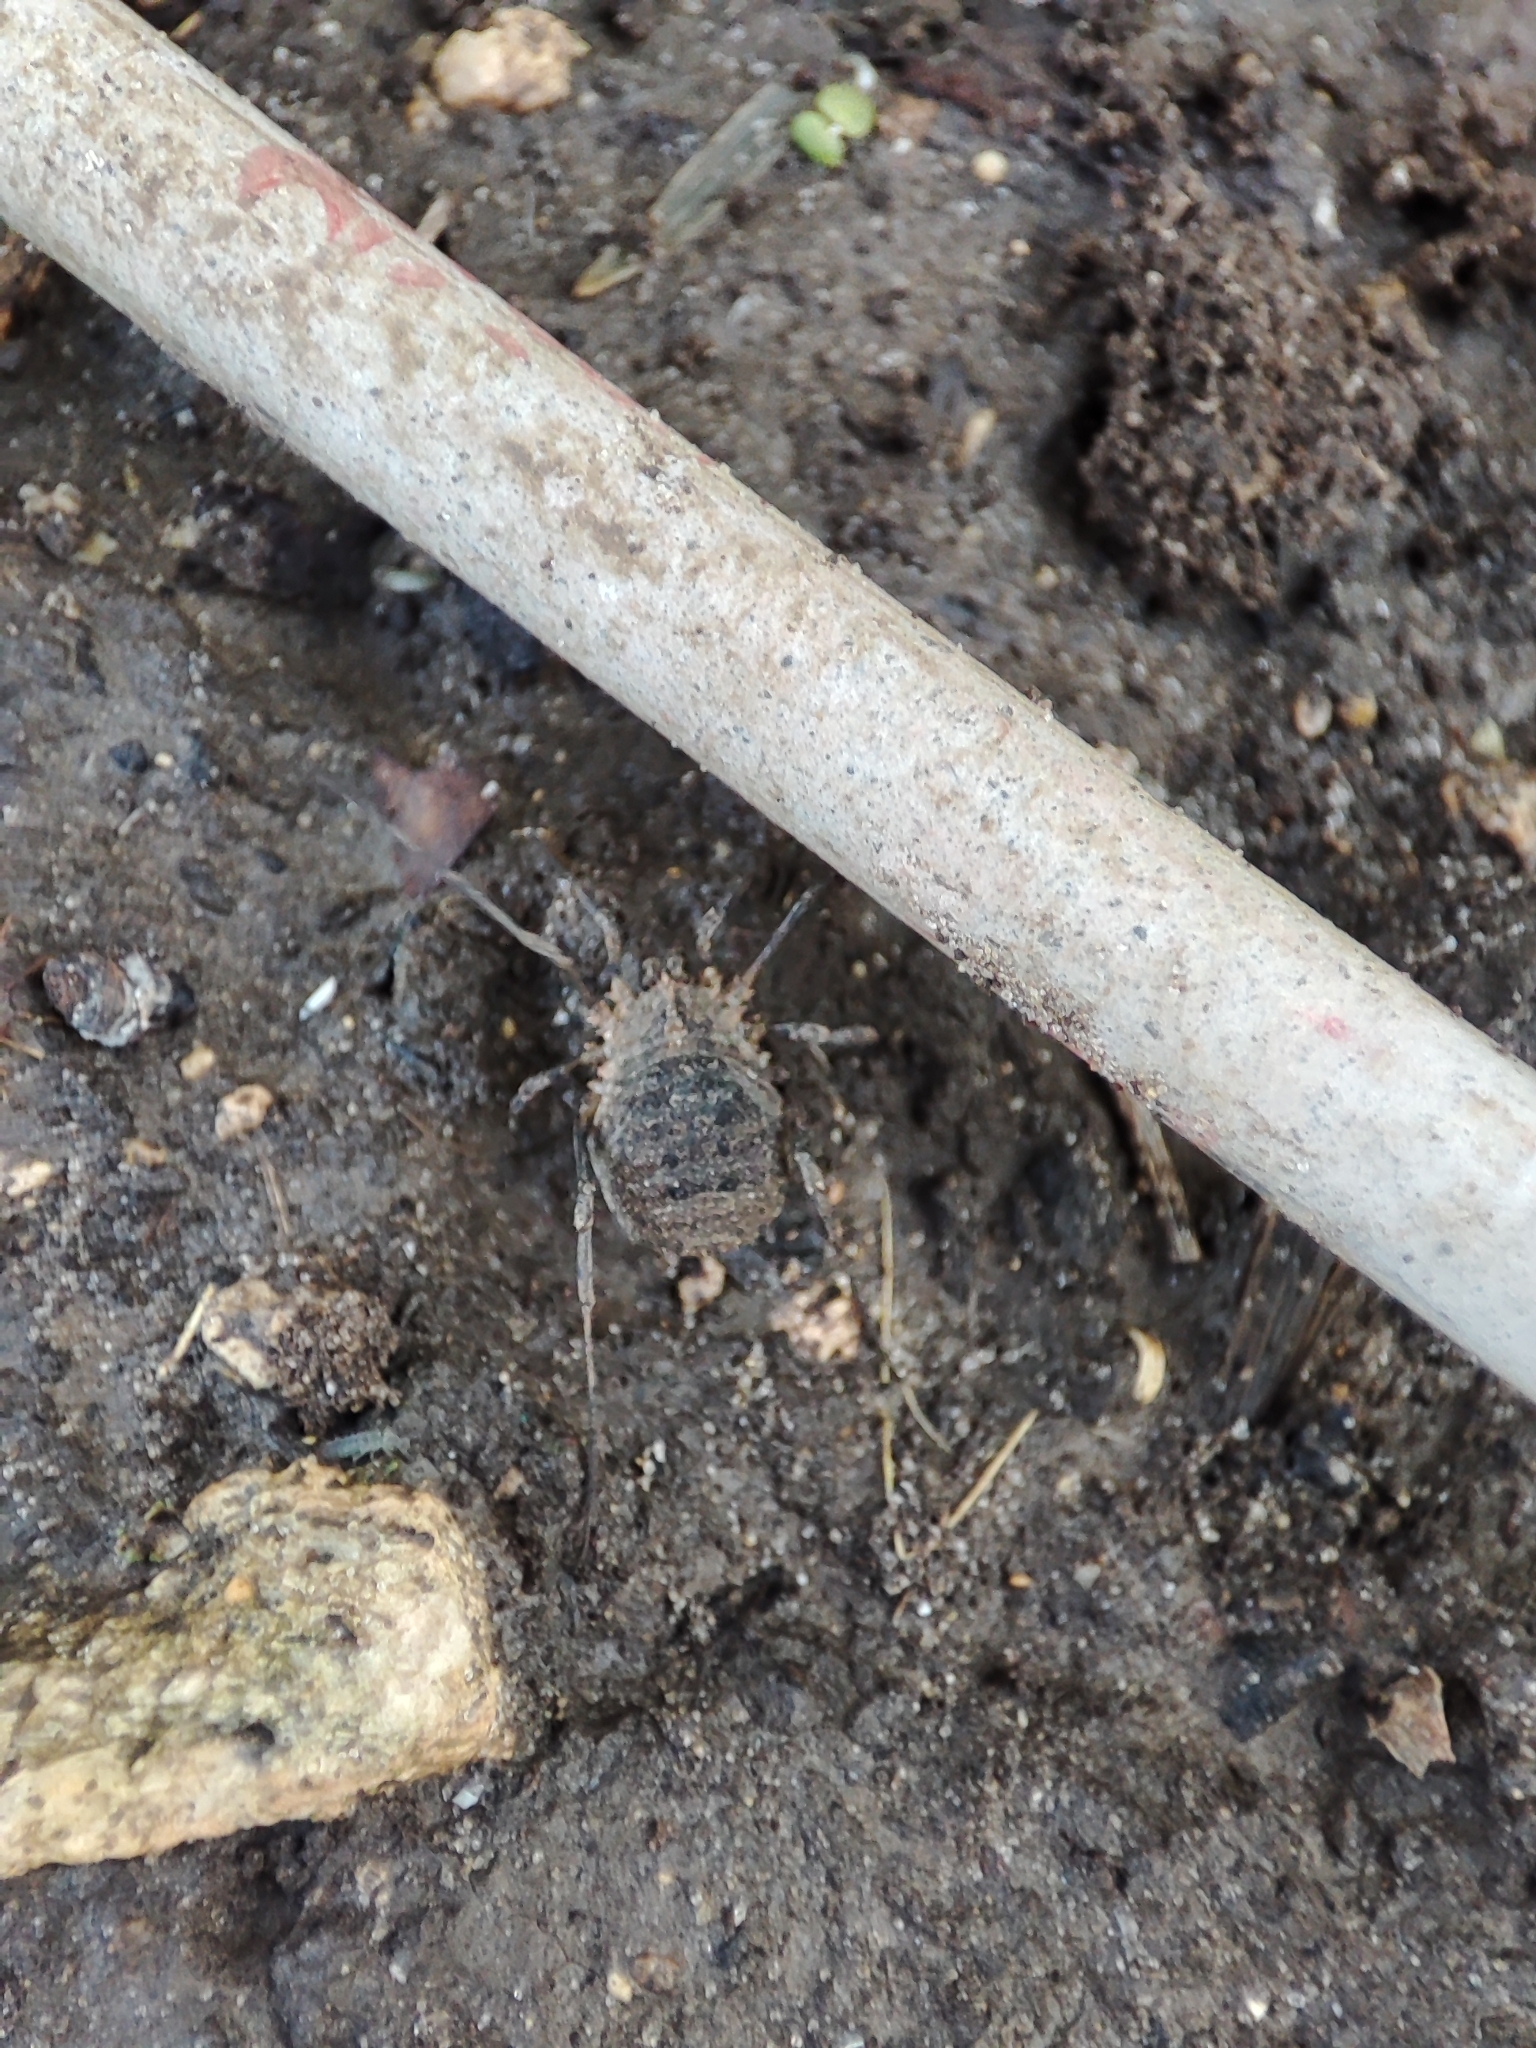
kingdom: Animalia
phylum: Arthropoda
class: Arachnida
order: Opiliones
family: Phalangiidae
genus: Odiellus
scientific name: Odiellus lendlii
